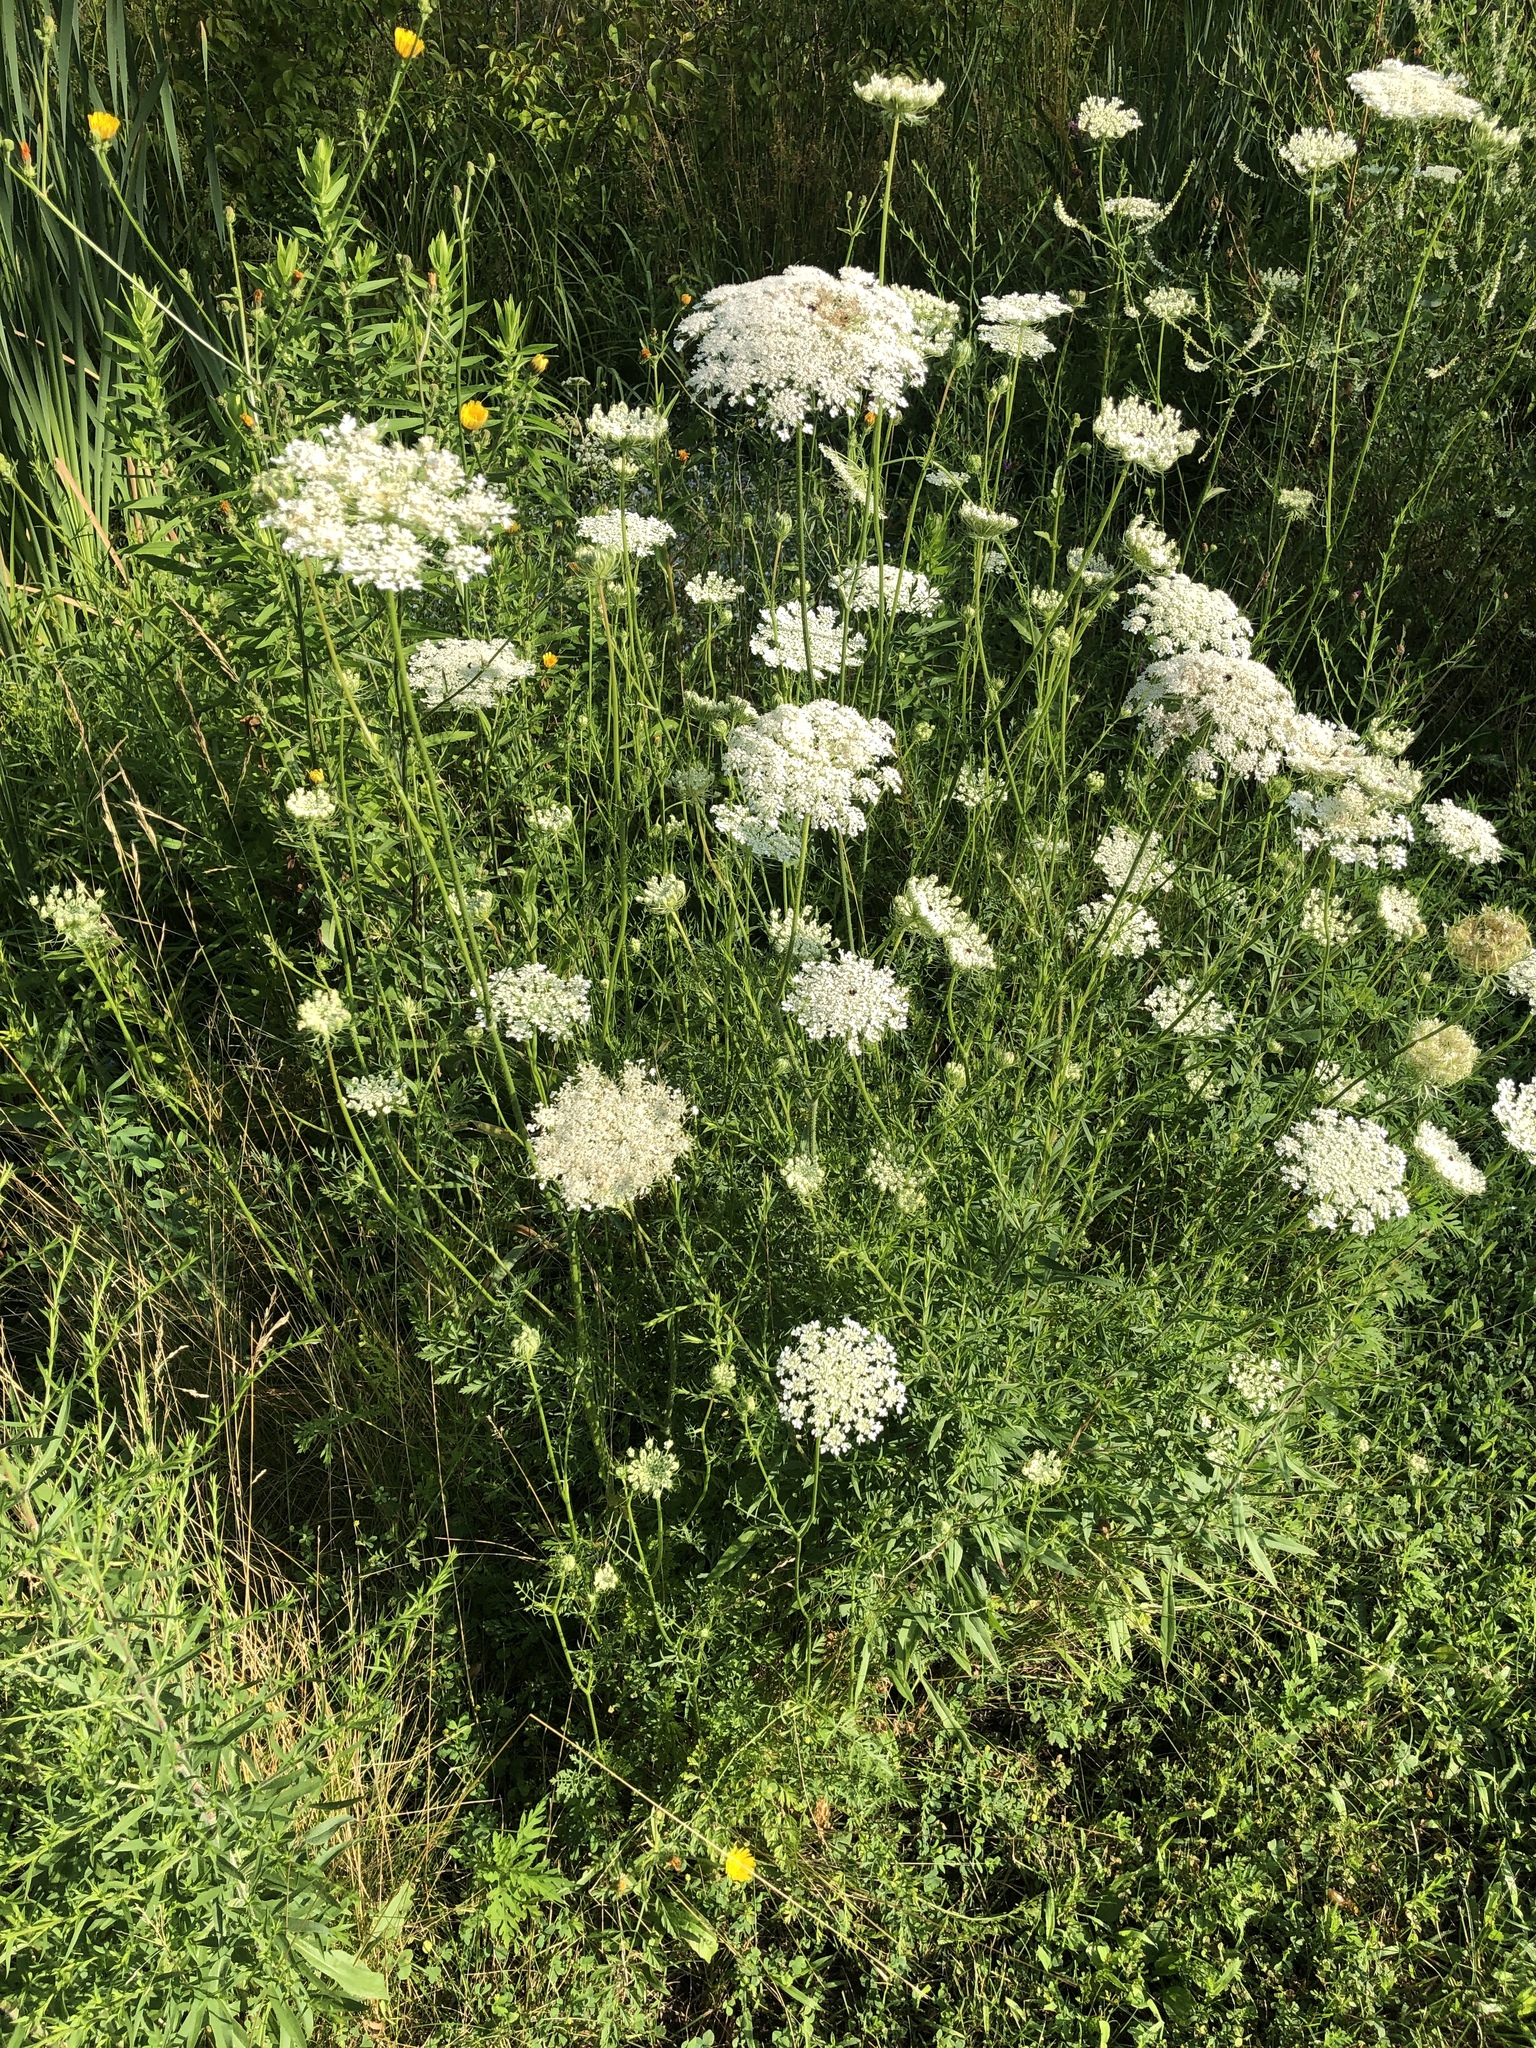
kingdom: Plantae
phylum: Tracheophyta
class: Magnoliopsida
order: Apiales
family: Apiaceae
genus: Daucus
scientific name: Daucus carota
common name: Wild carrot
